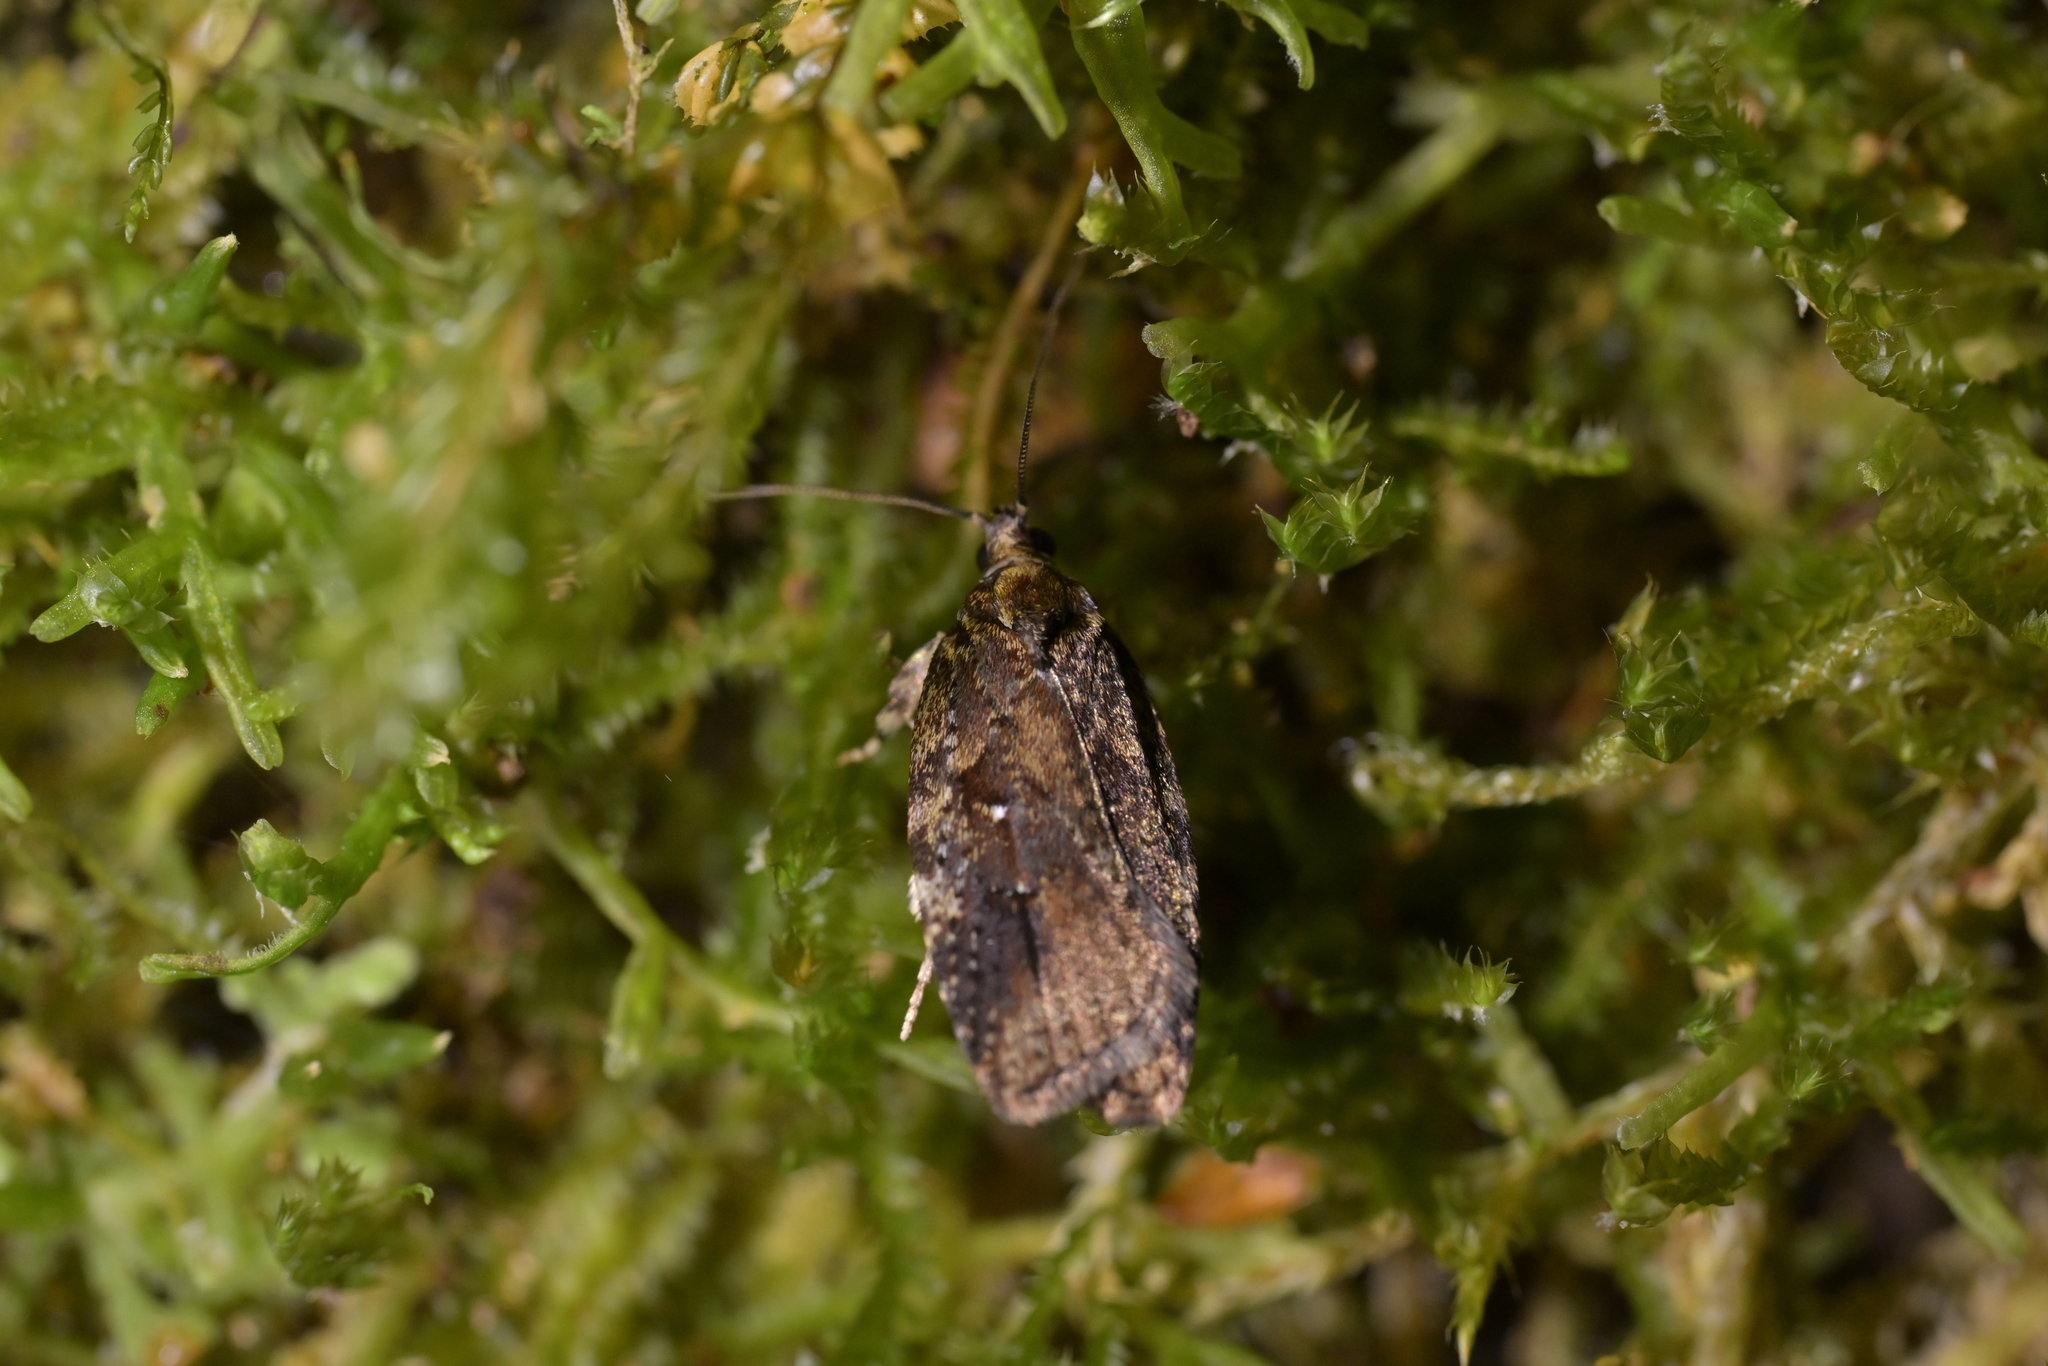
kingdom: Animalia
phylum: Arthropoda
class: Insecta
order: Lepidoptera
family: Oecophoridae
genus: Proteodes
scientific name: Proteodes profunda
